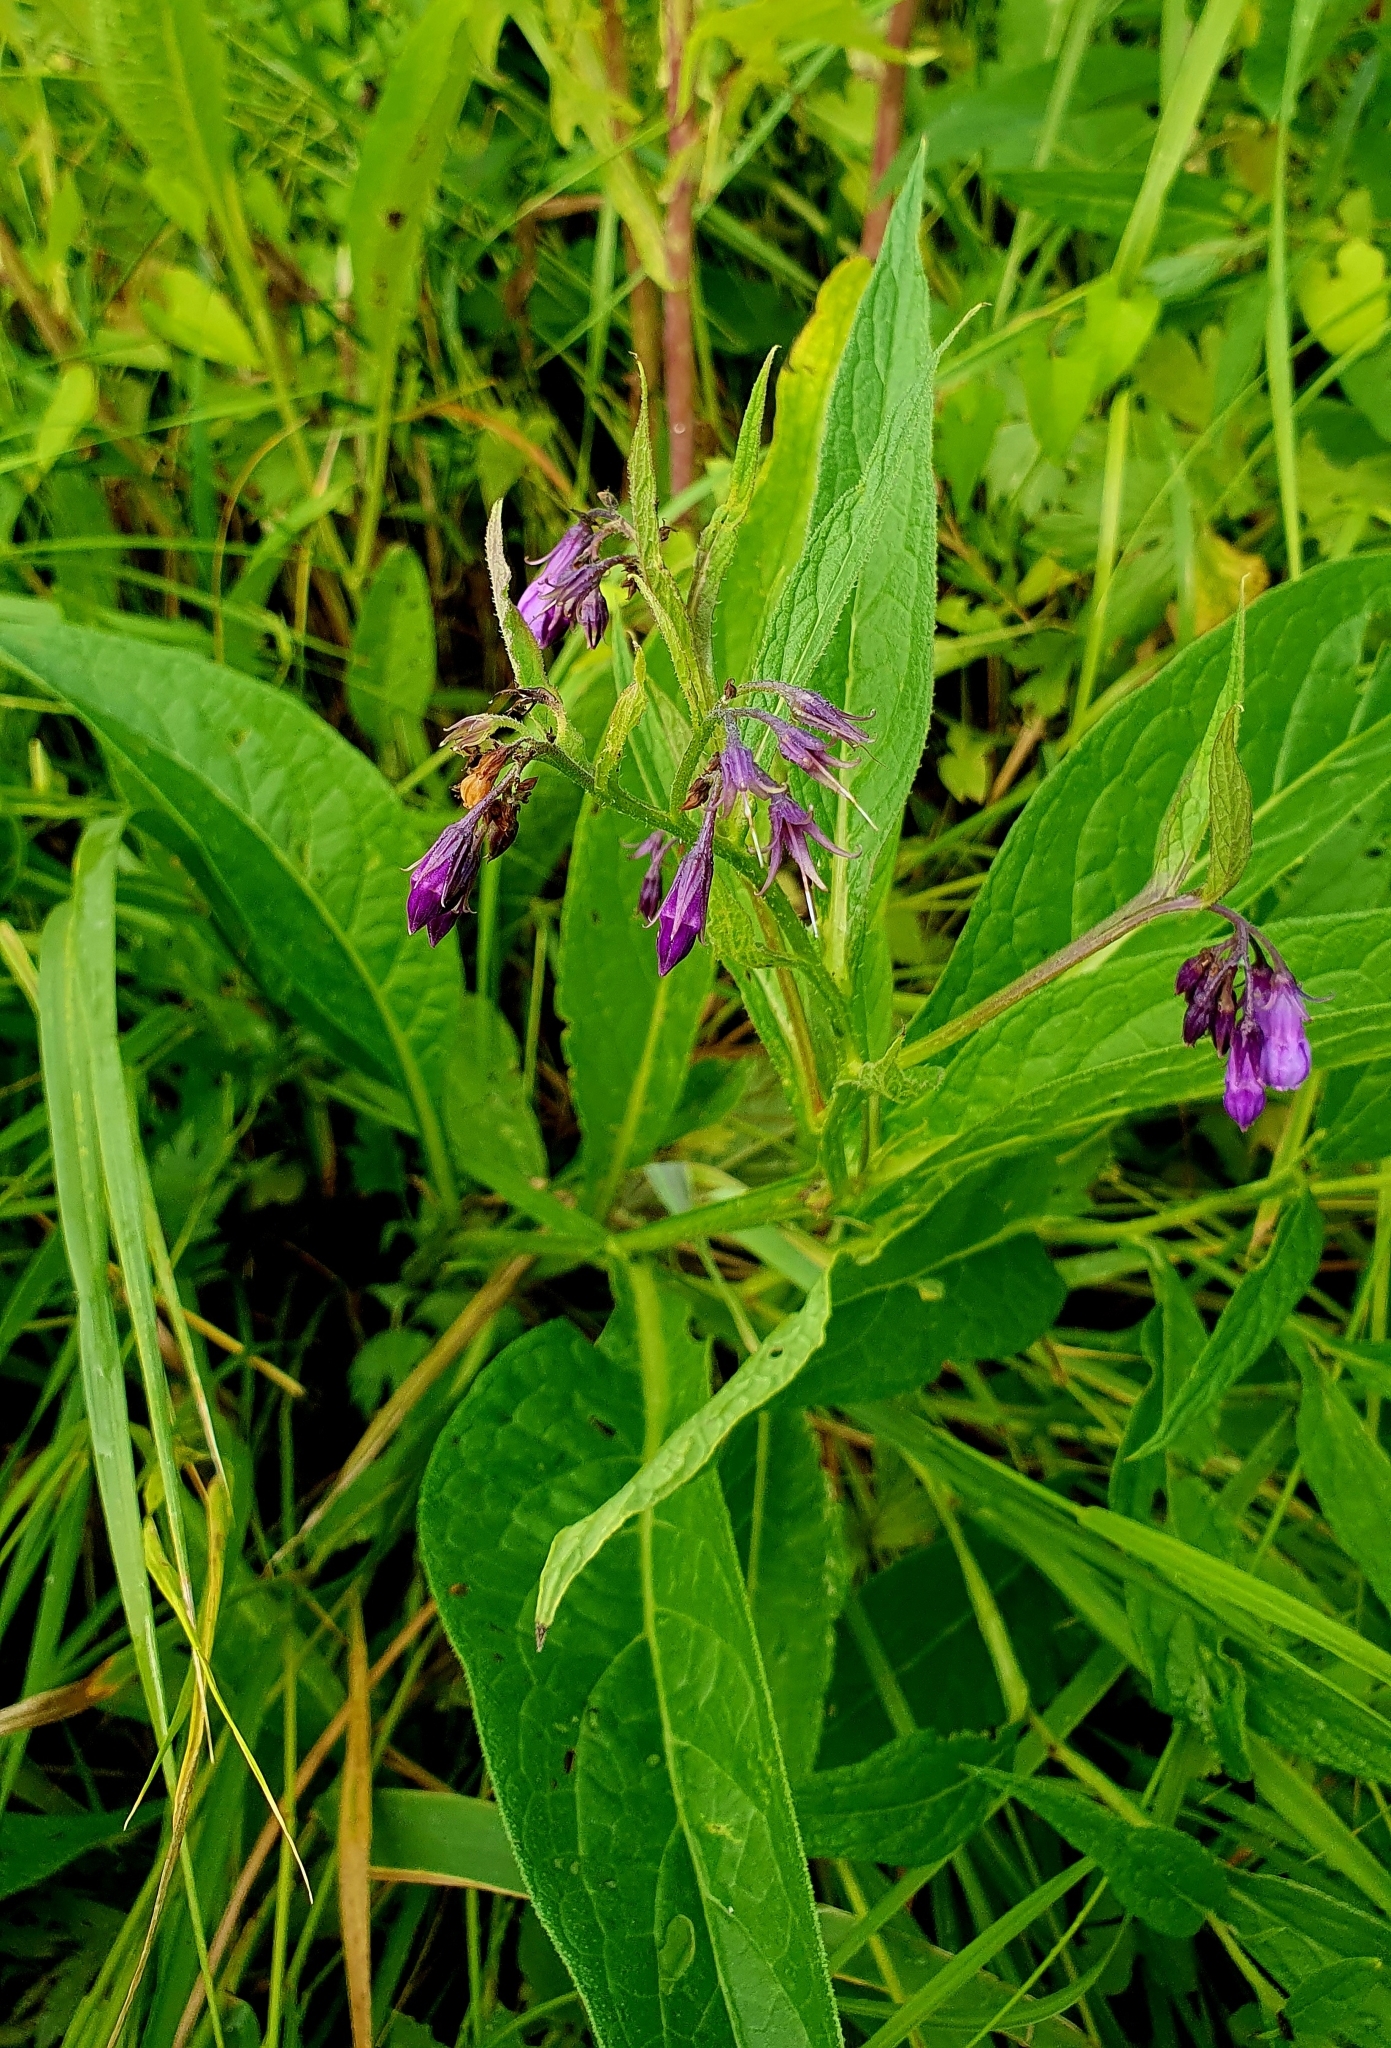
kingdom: Plantae
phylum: Tracheophyta
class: Magnoliopsida
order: Boraginales
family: Boraginaceae
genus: Symphytum
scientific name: Symphytum officinale
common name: Common comfrey
